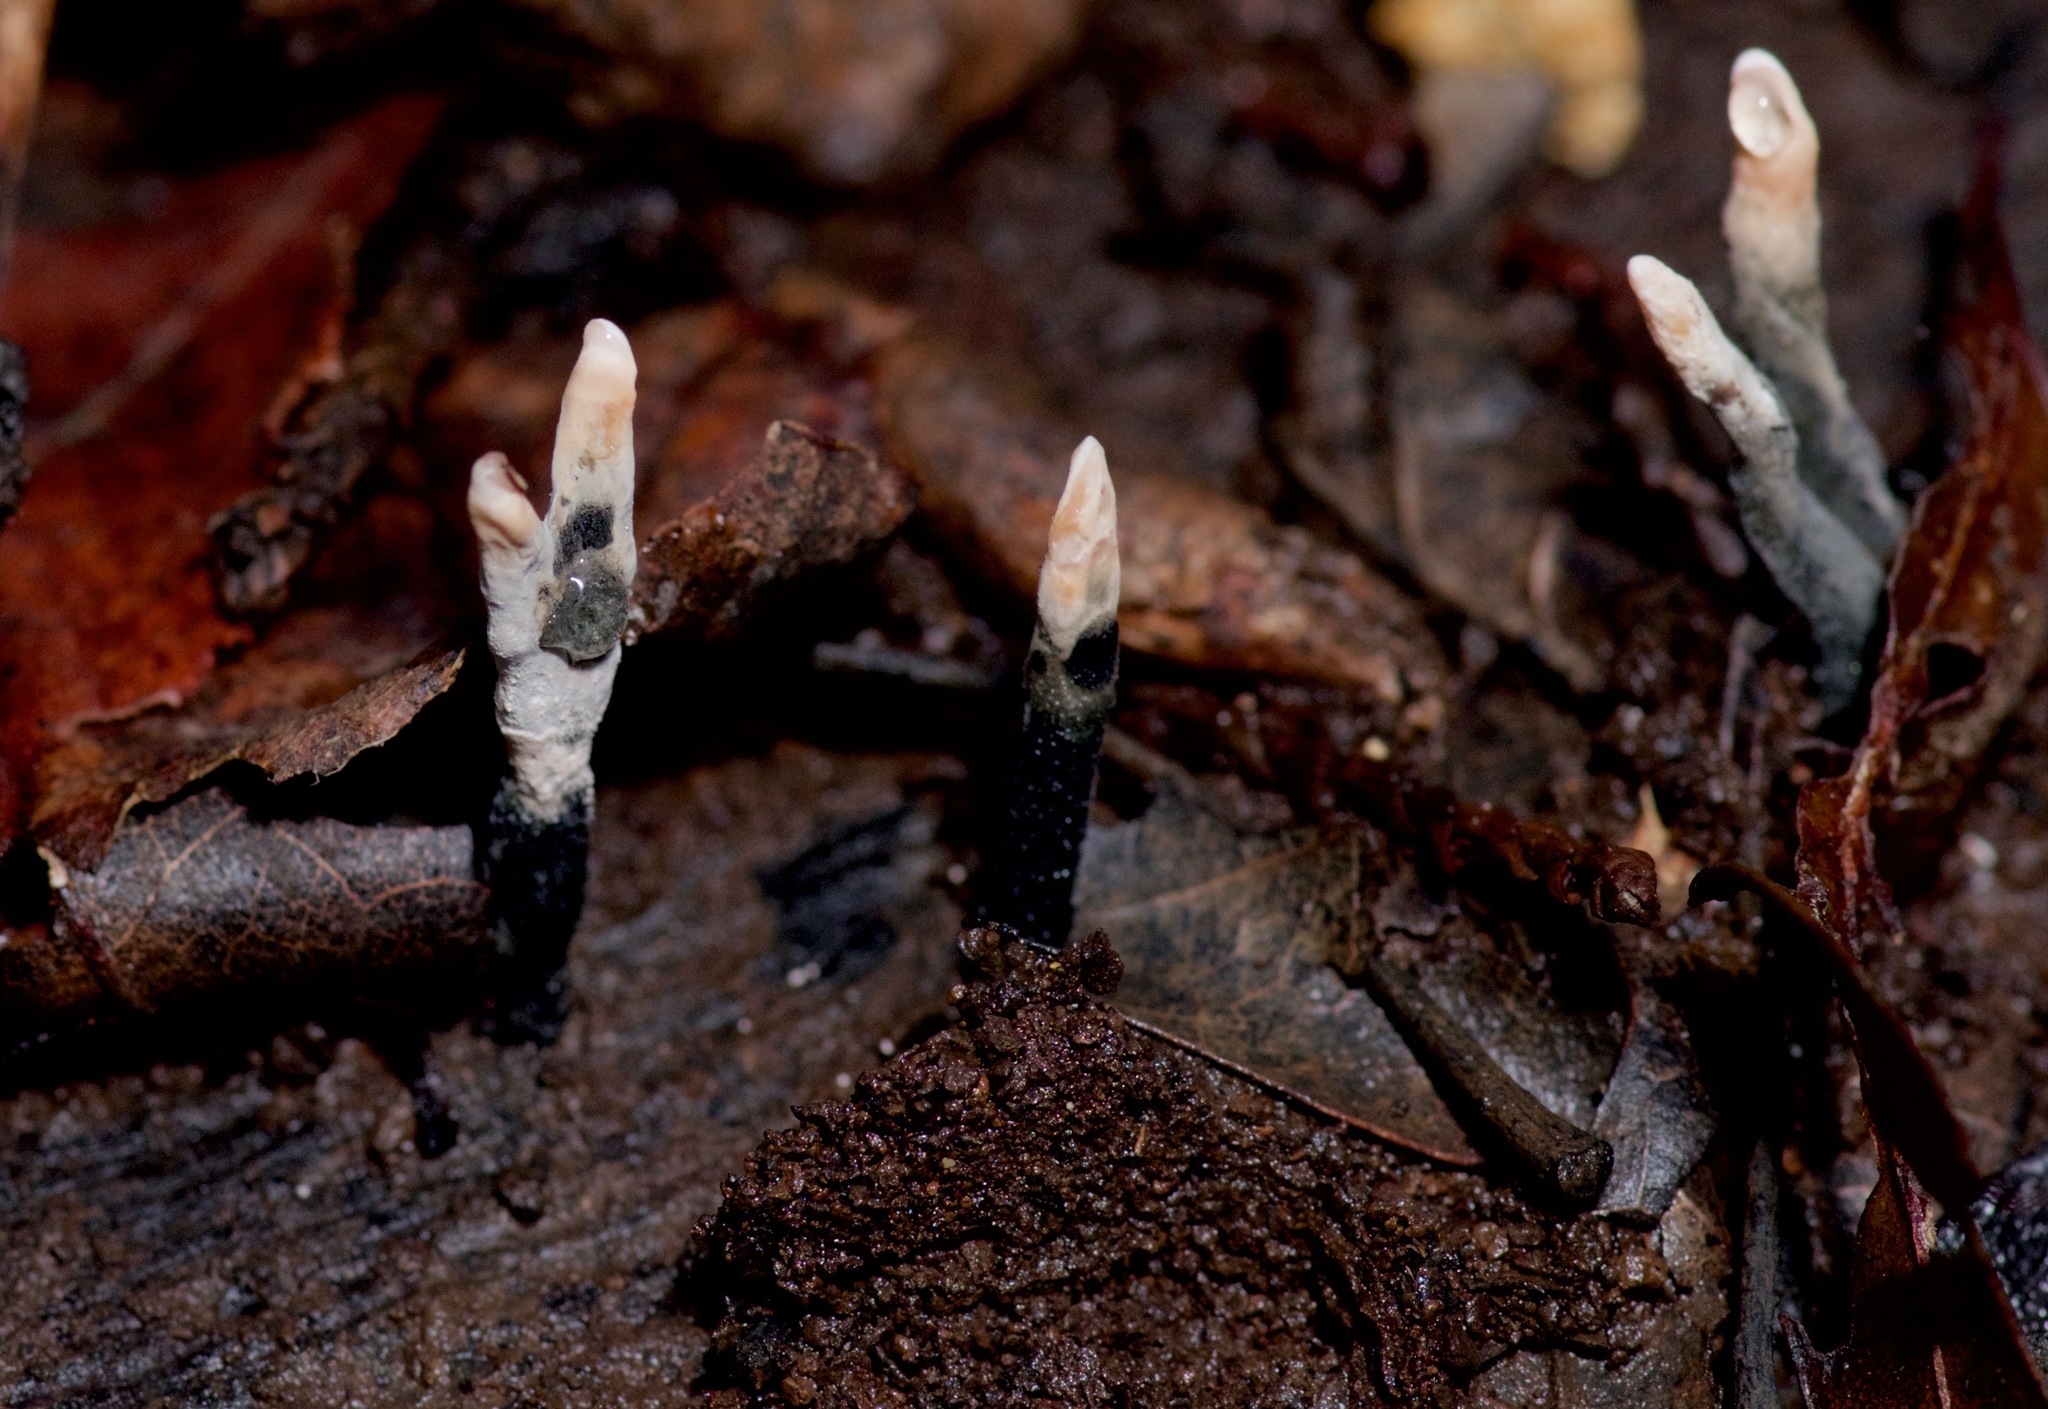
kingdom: Fungi
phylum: Ascomycota
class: Sordariomycetes
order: Xylariales
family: Xylariaceae
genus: Xylaria
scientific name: Xylaria hypoxylon
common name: Candle-snuff fungus
